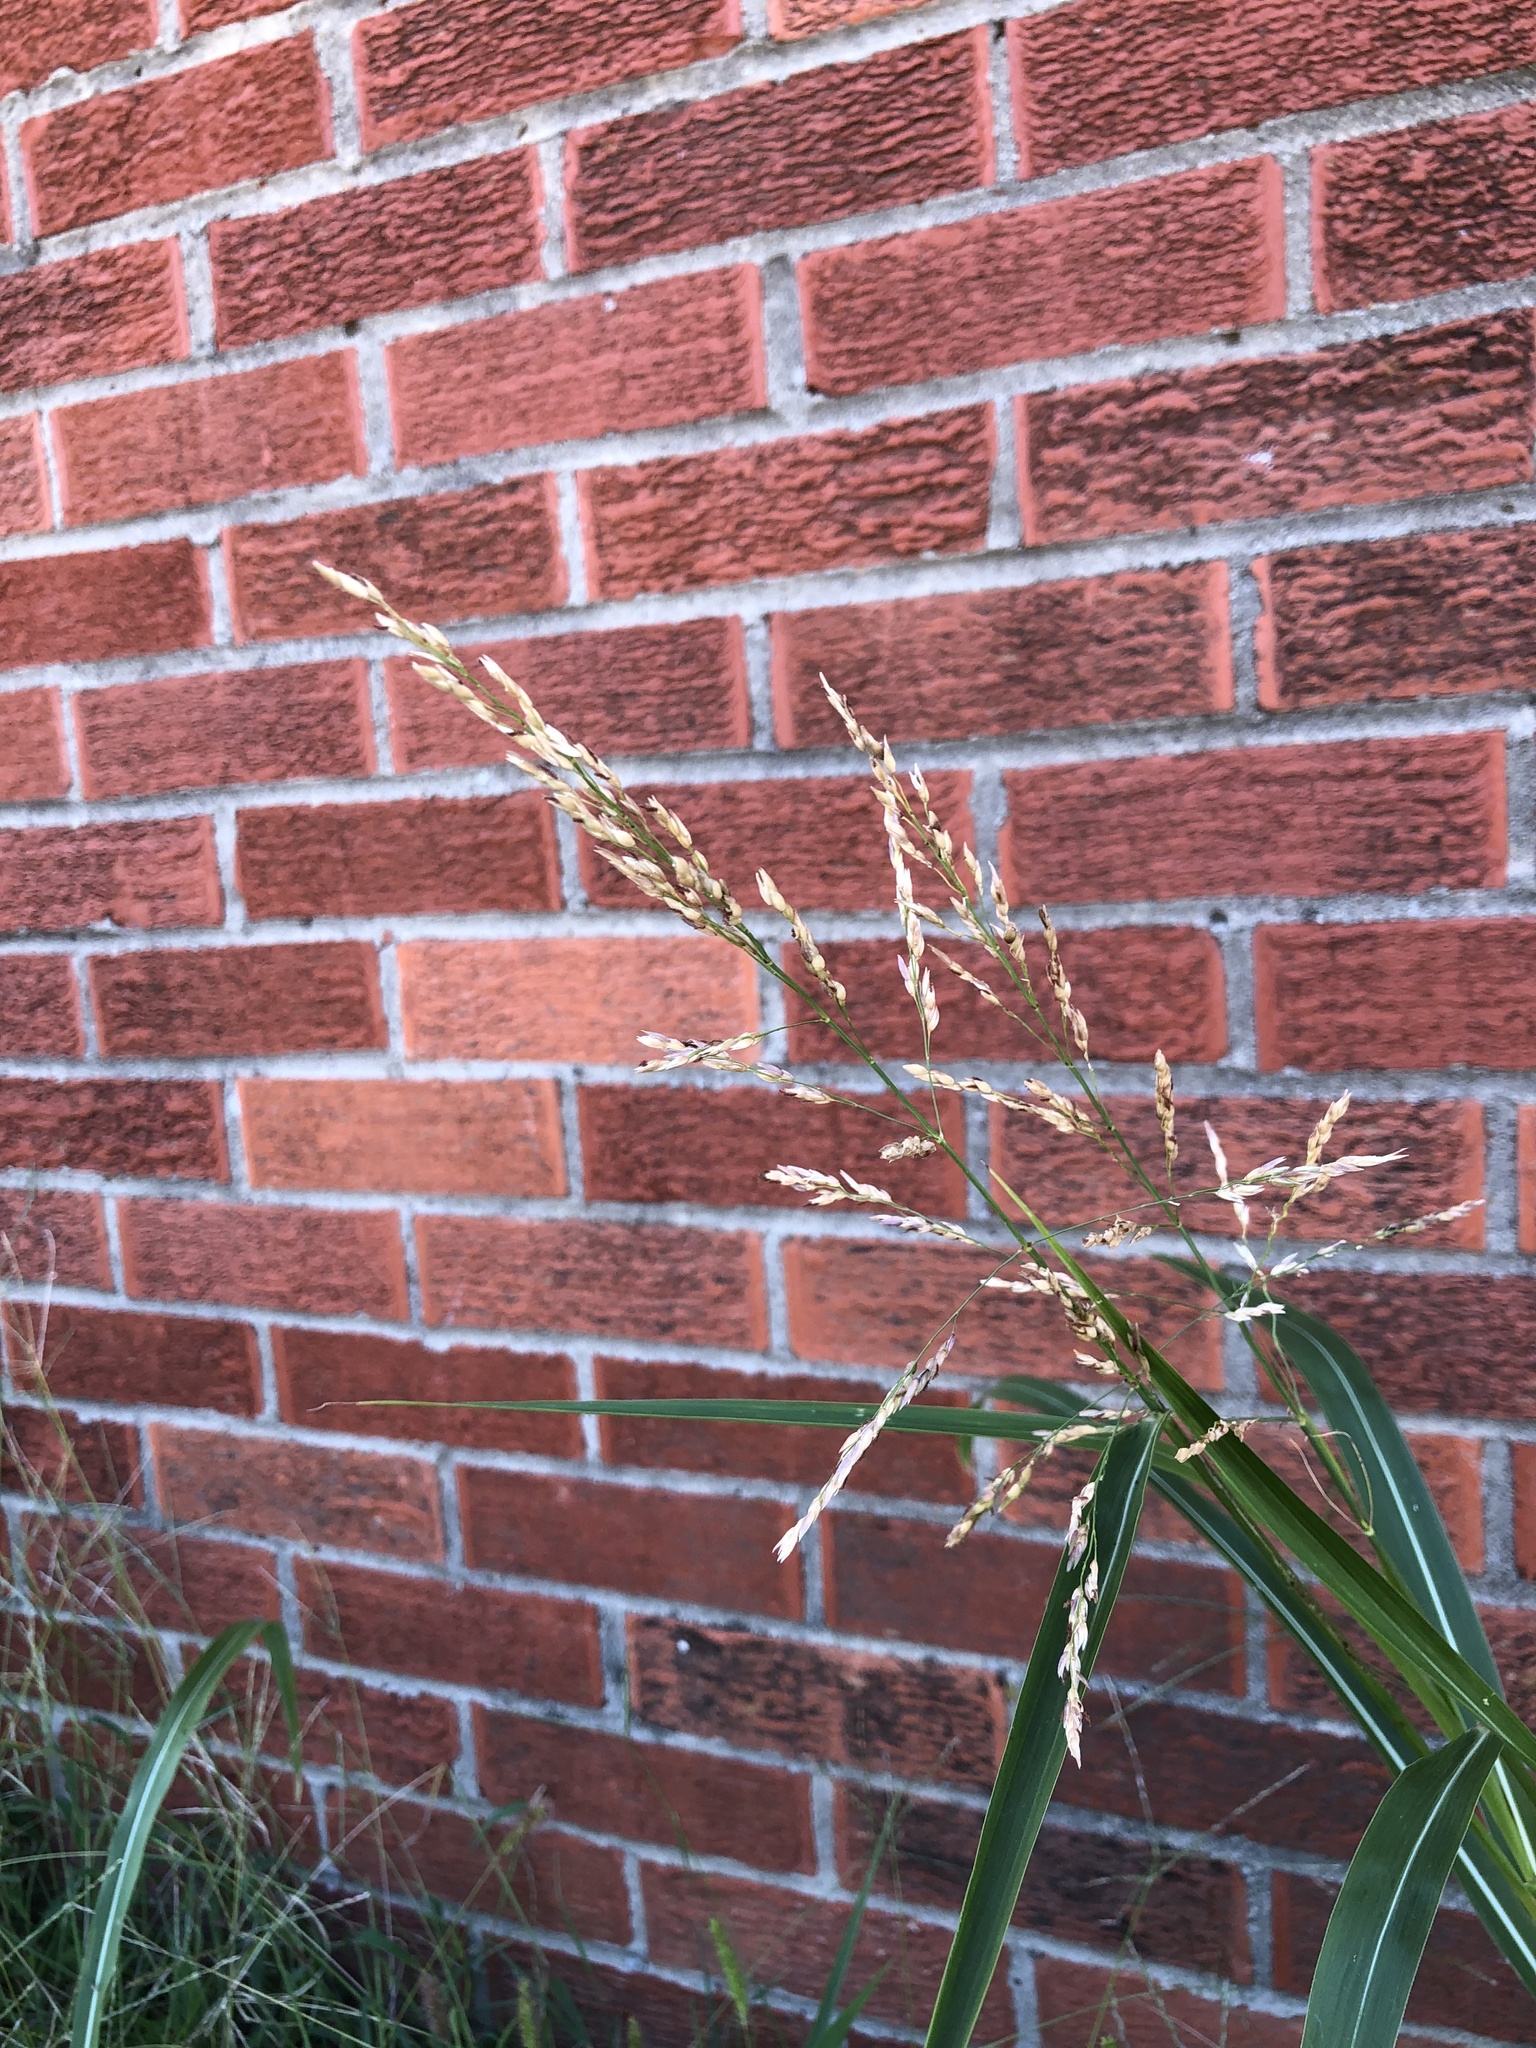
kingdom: Plantae
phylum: Tracheophyta
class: Liliopsida
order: Poales
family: Poaceae
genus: Sorghum
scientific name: Sorghum halepense
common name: Johnson-grass
